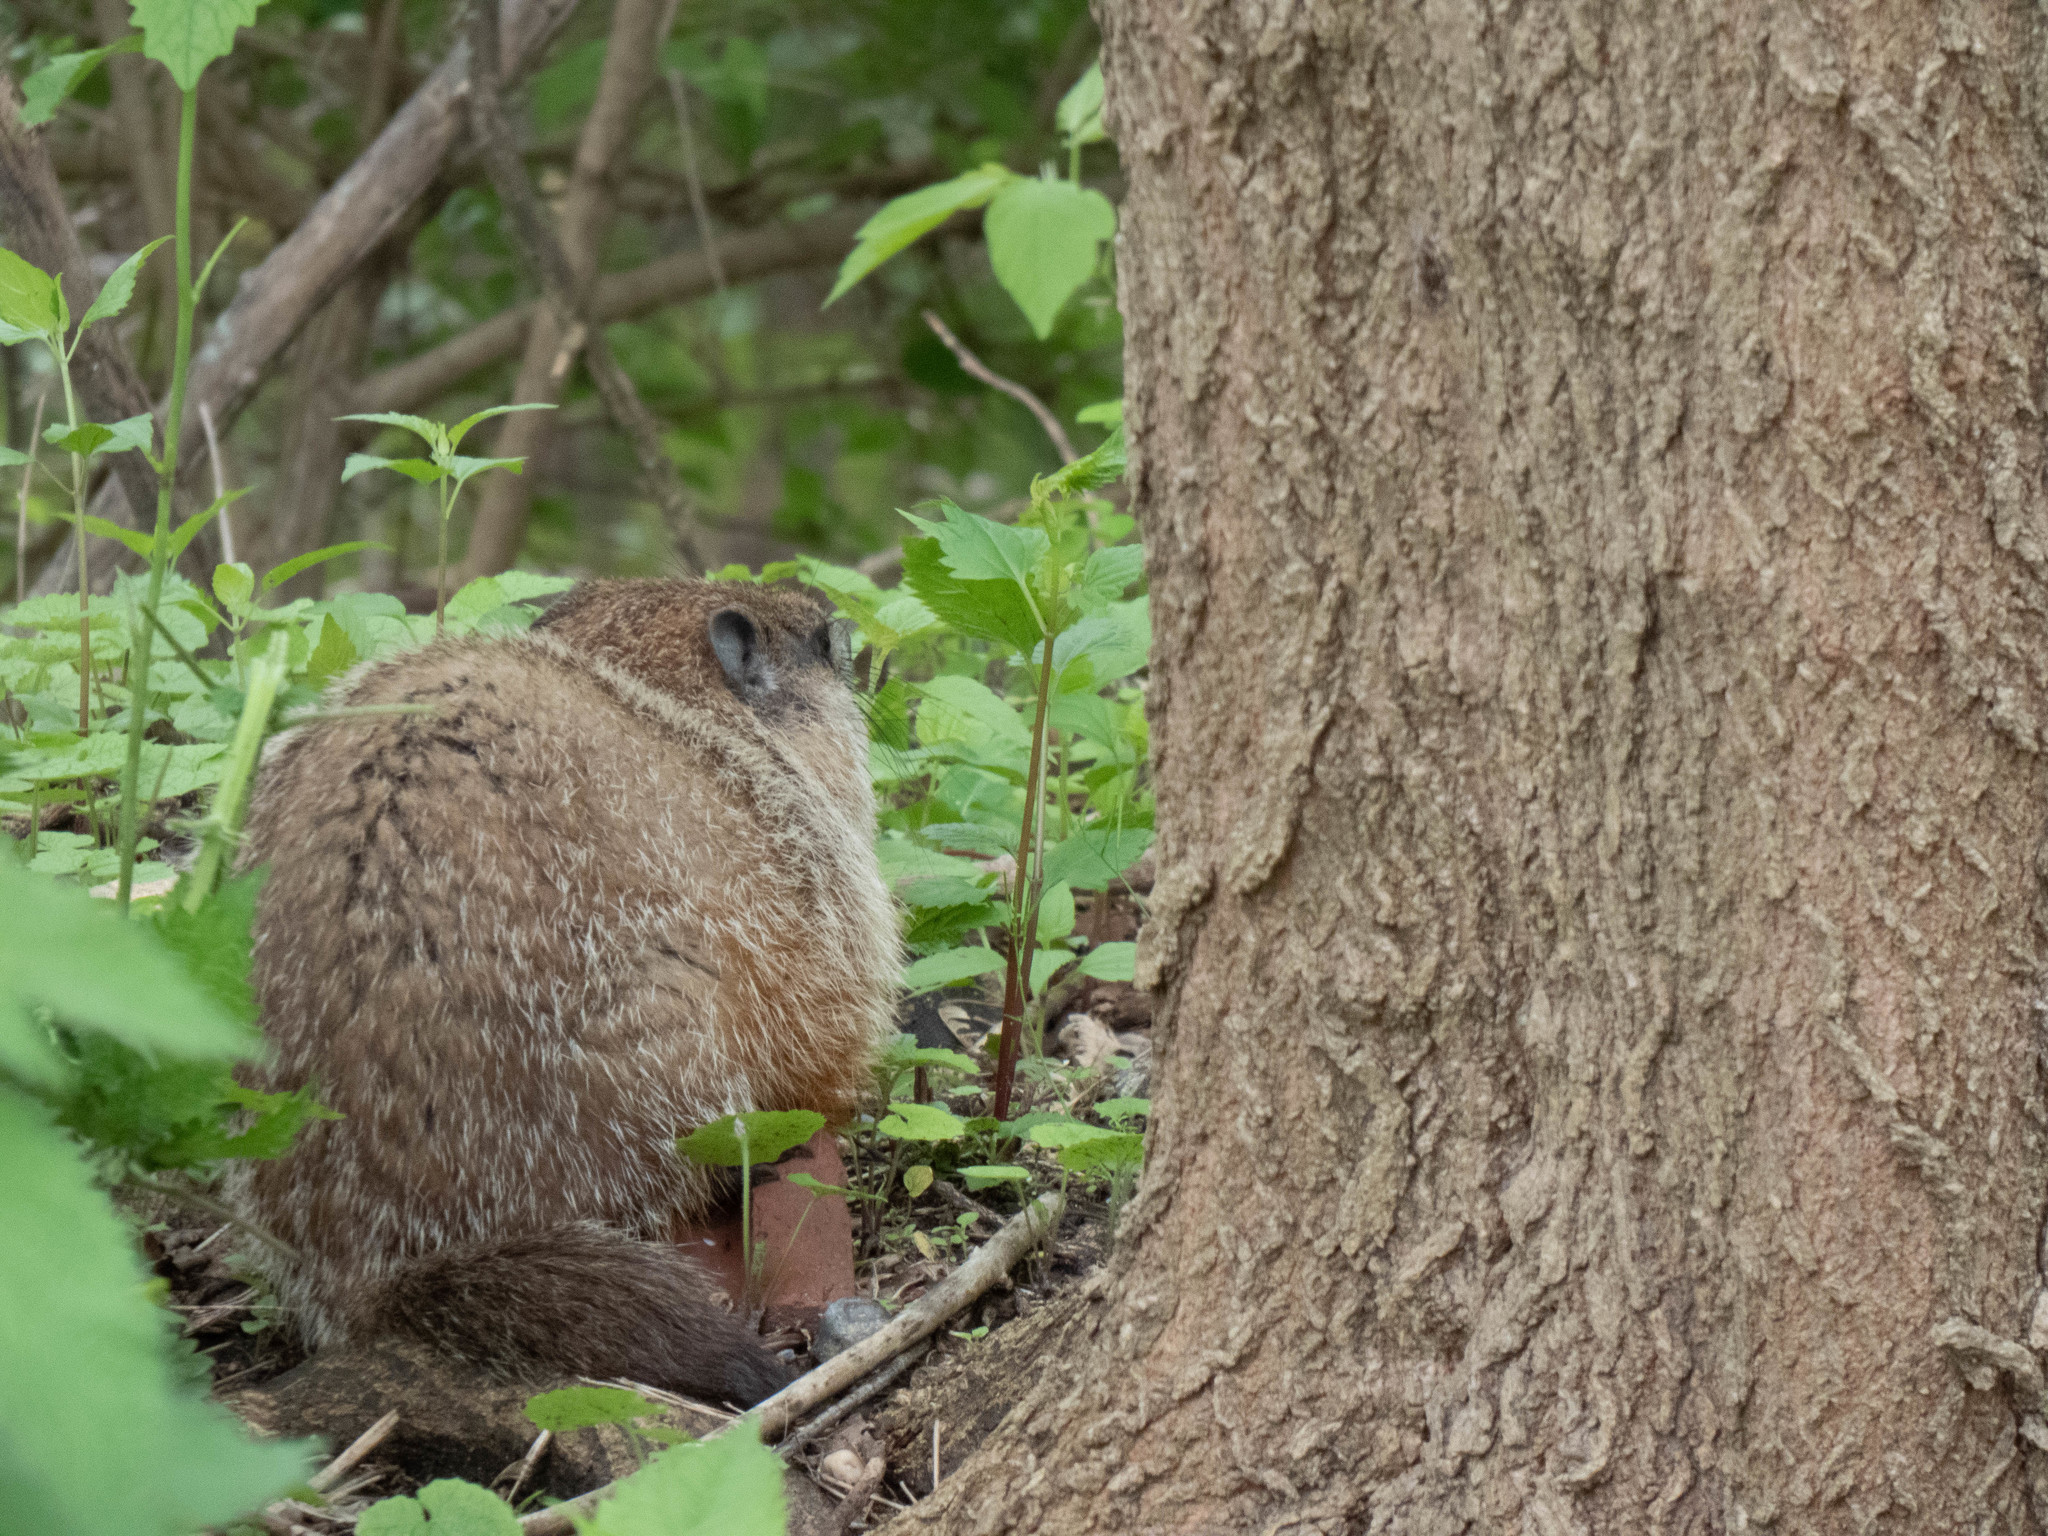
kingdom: Animalia
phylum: Chordata
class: Mammalia
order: Rodentia
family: Sciuridae
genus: Marmota
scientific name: Marmota monax
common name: Groundhog
